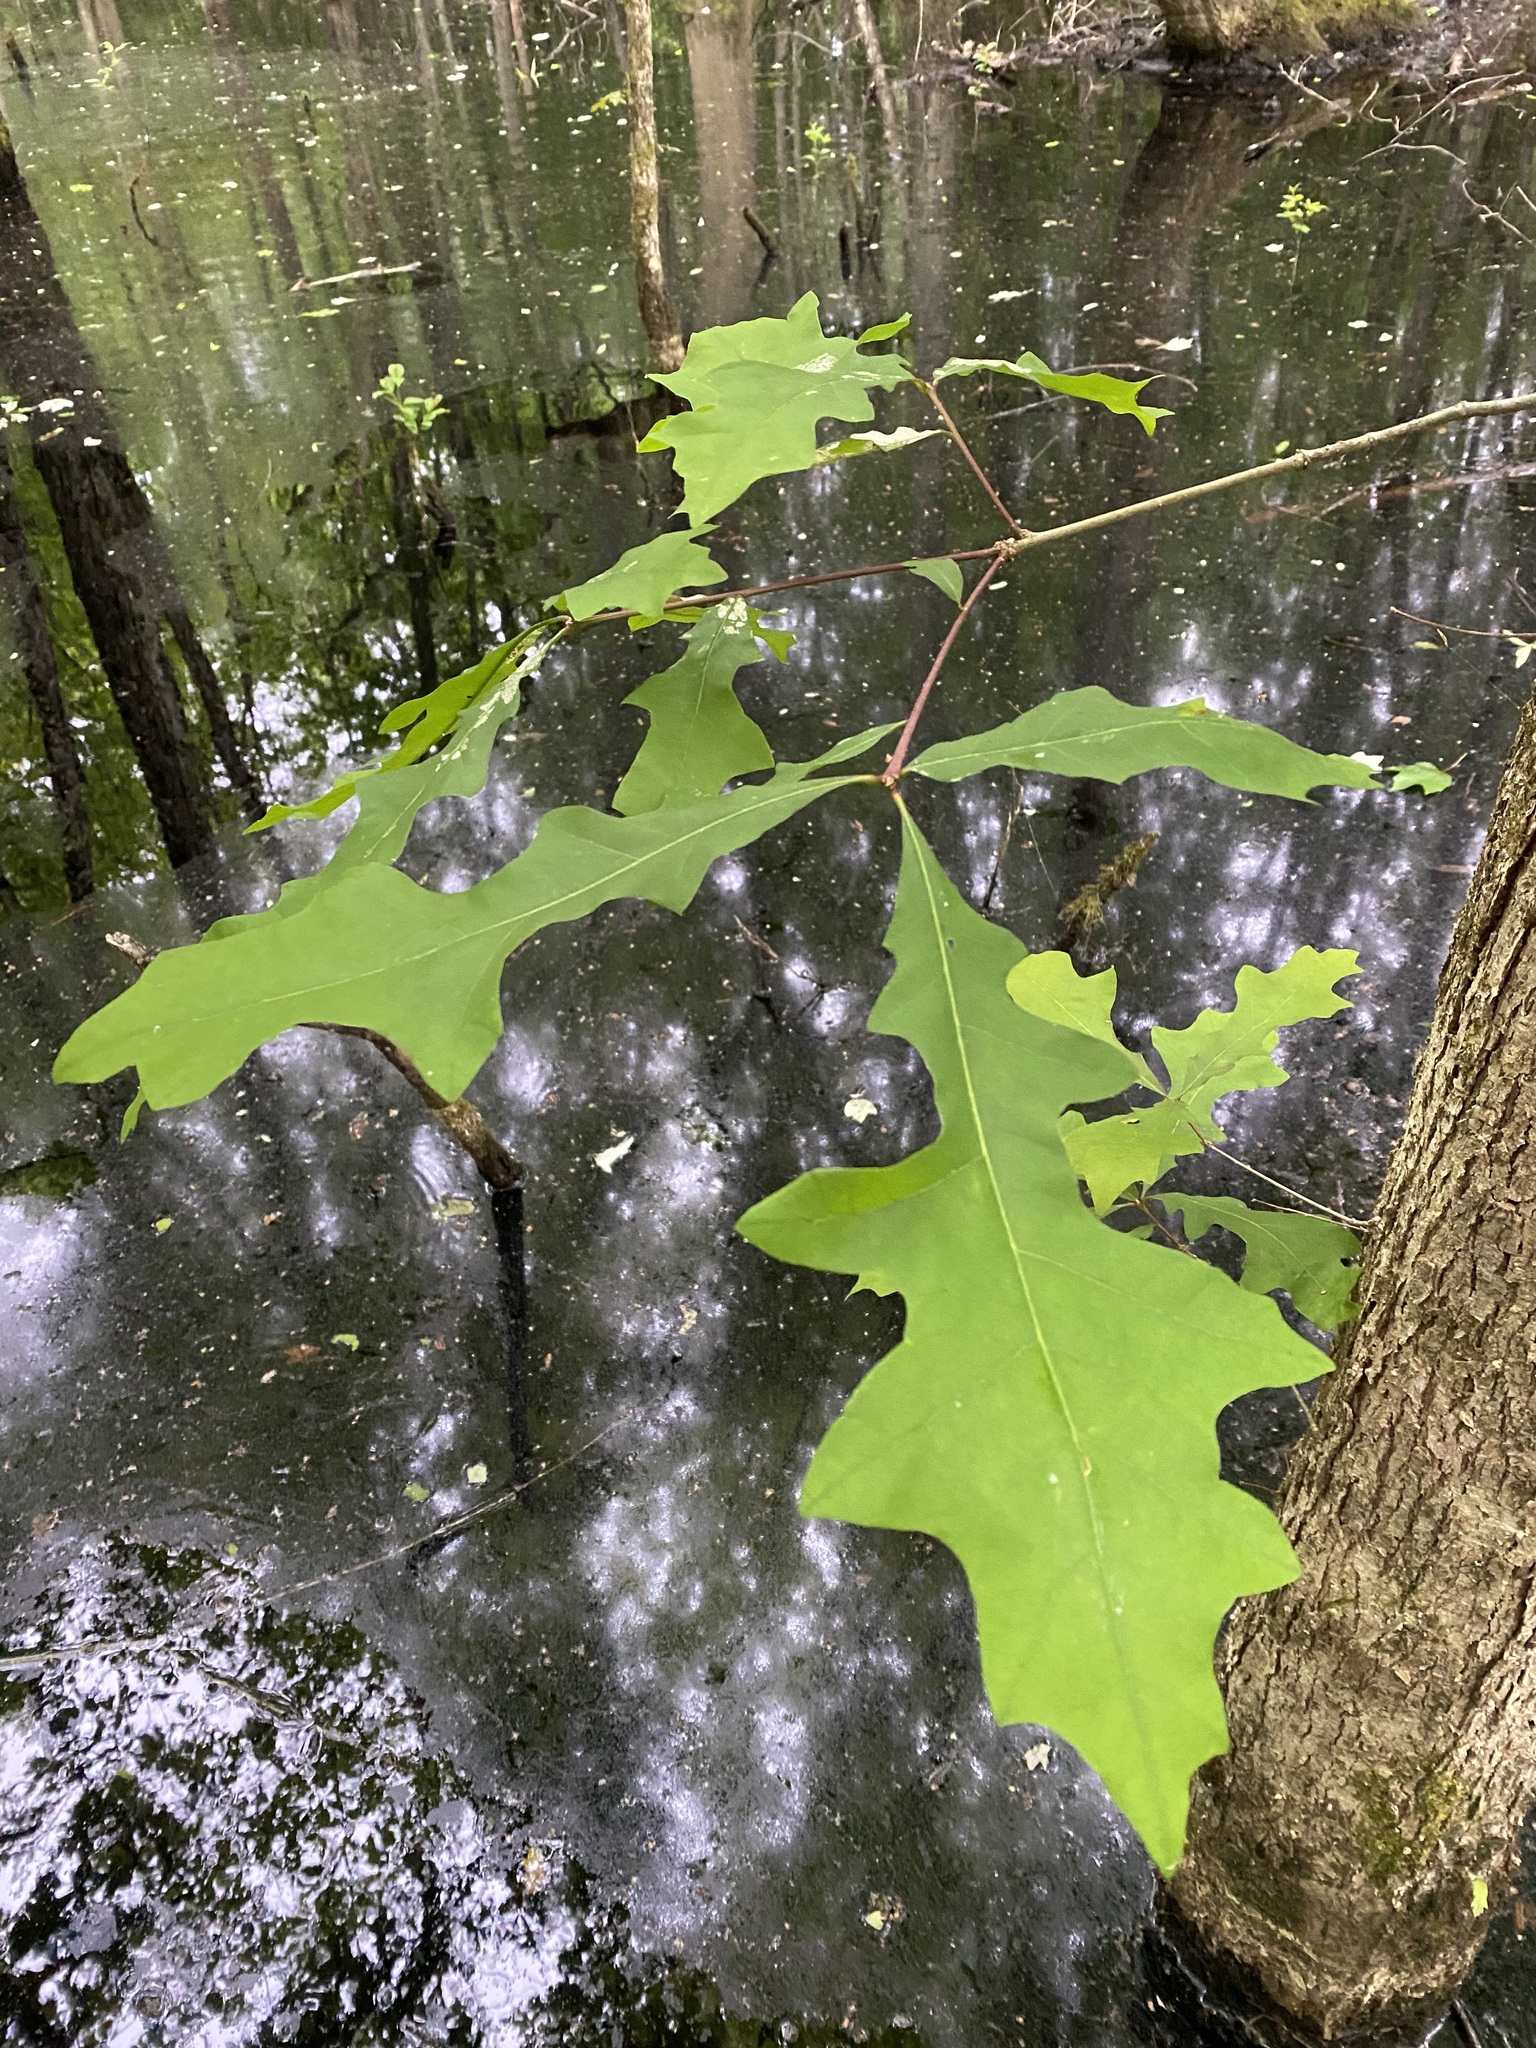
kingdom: Plantae
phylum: Tracheophyta
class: Magnoliopsida
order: Fagales
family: Fagaceae
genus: Quercus
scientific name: Quercus lyrata
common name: Overcup oak
